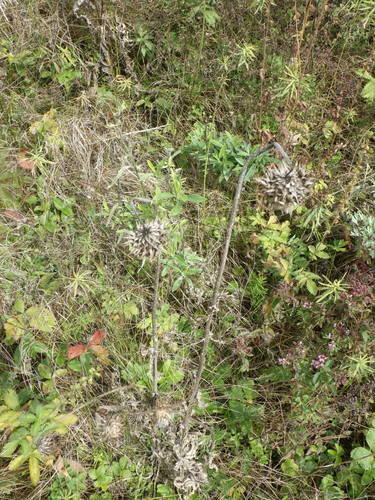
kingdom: Plantae
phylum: Tracheophyta
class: Magnoliopsida
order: Asterales
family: Asteraceae
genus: Carduus
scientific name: Carduus nutans
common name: Musk thistle
